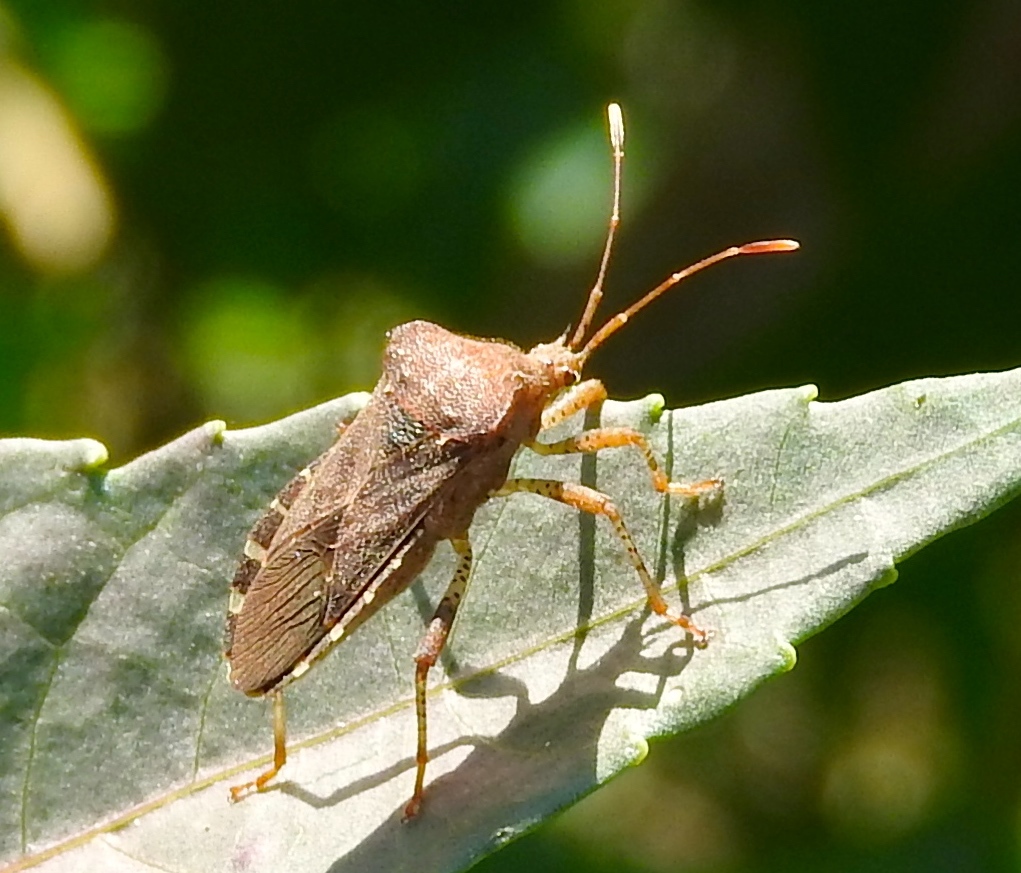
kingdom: Animalia
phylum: Arthropoda
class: Insecta
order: Hemiptera
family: Coreidae
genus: Anasa
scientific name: Anasa scorbutica
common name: Squash bug
